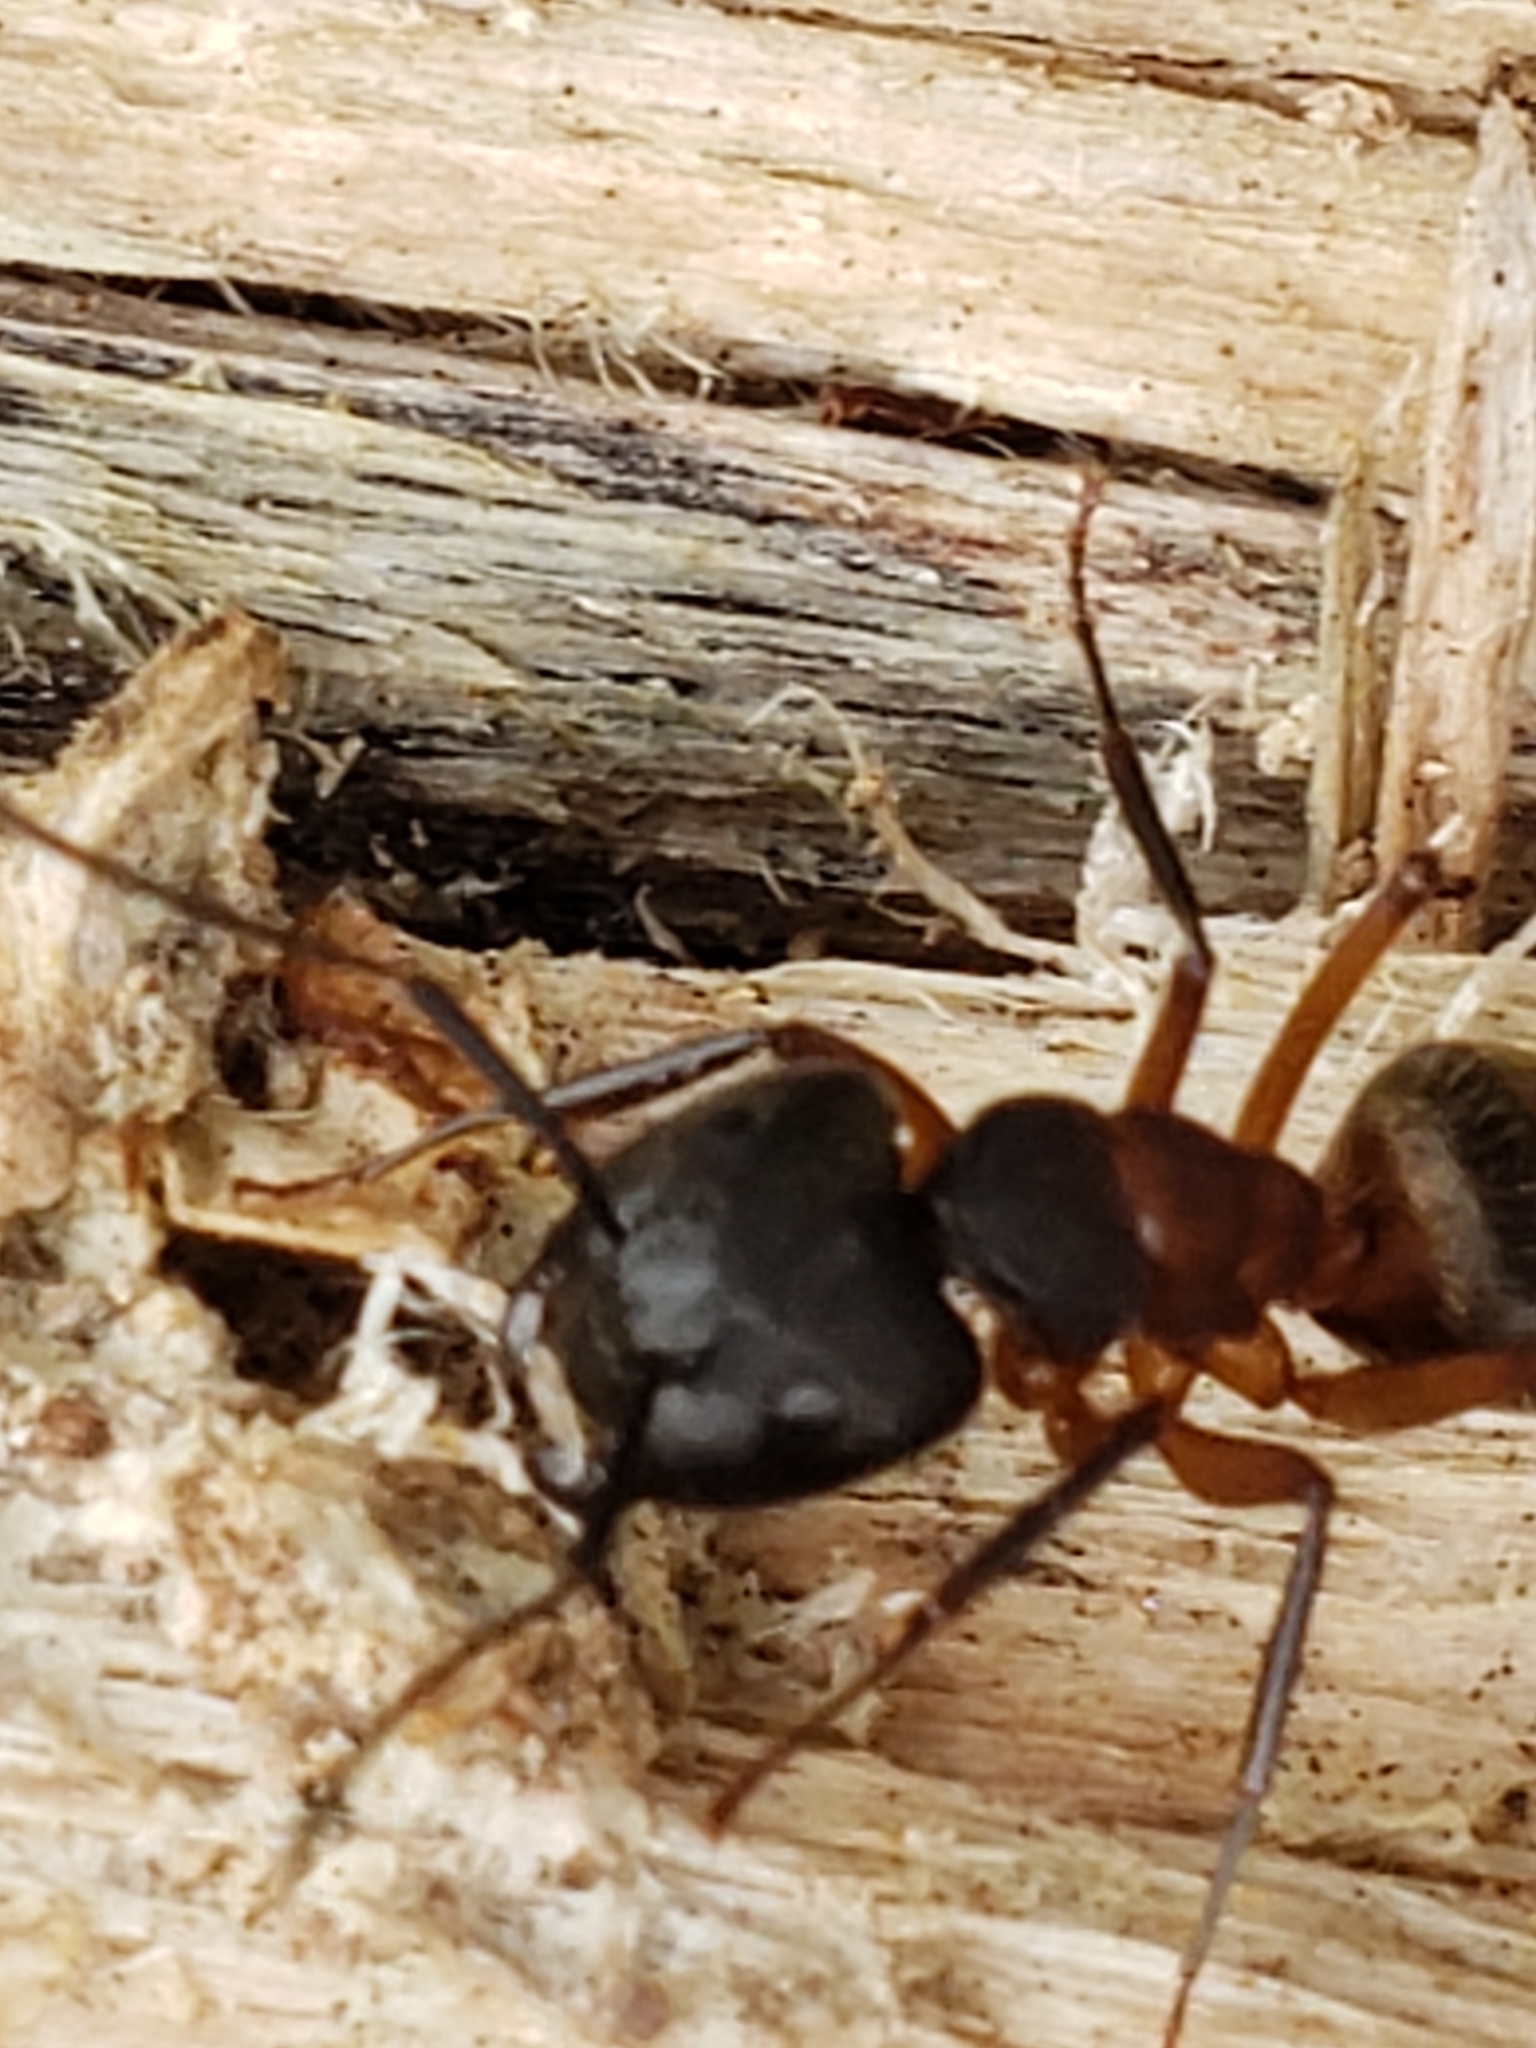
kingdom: Animalia
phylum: Arthropoda
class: Insecta
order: Hymenoptera
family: Formicidae
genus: Camponotus
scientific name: Camponotus chromaiodes
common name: Red carpenter ant
